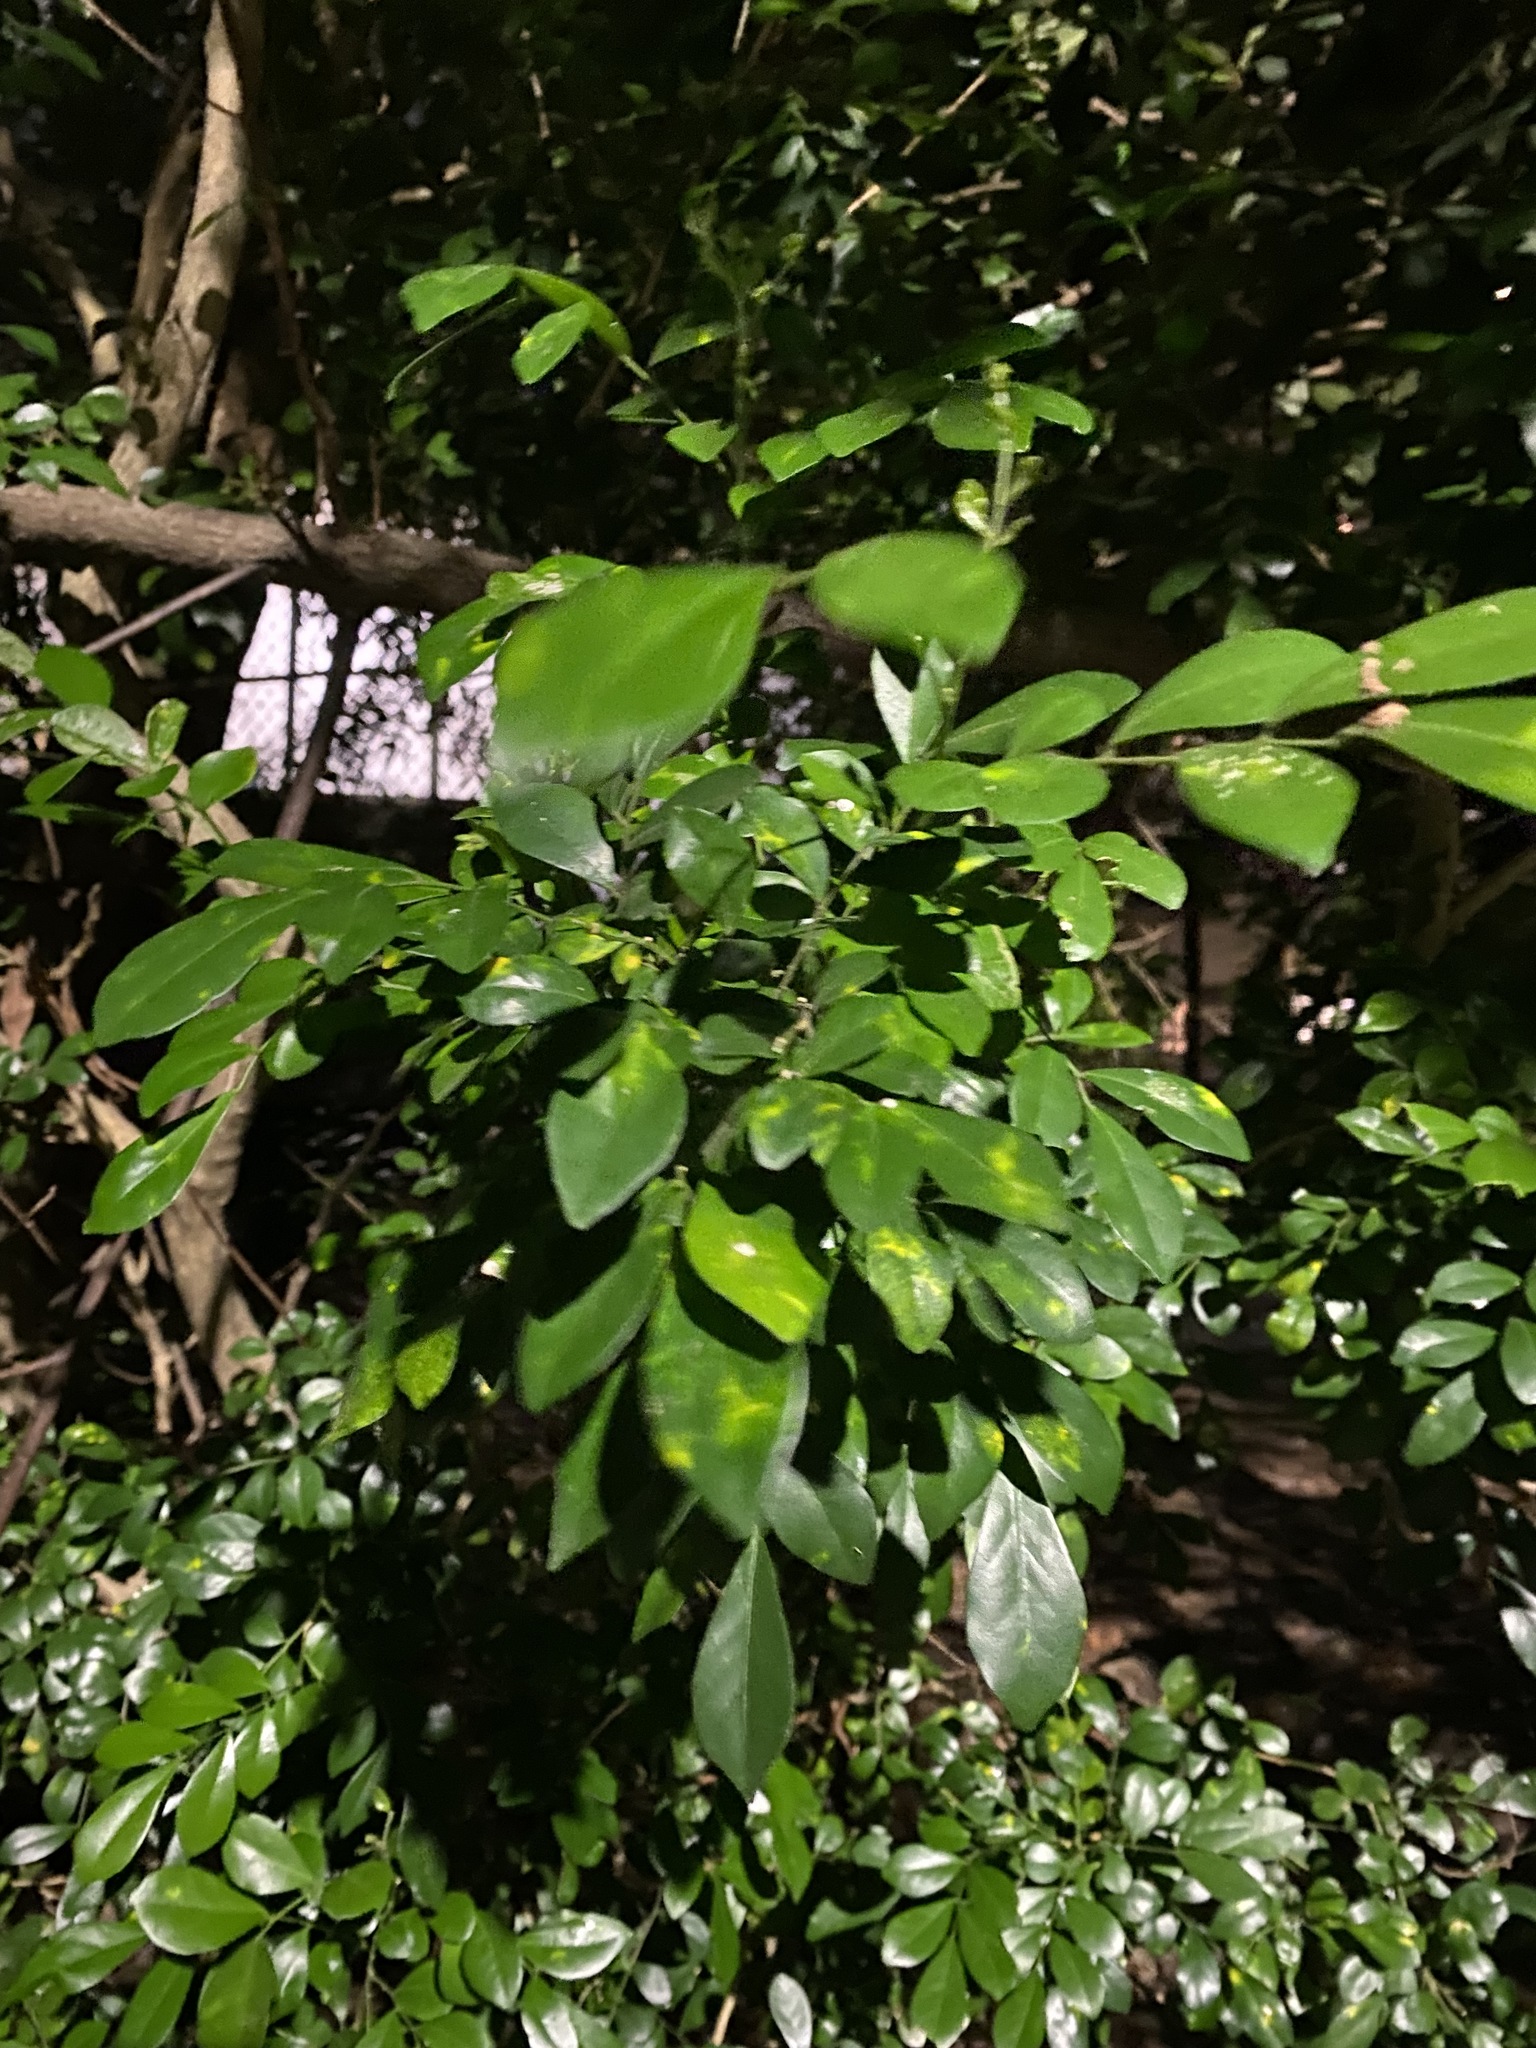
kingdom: Plantae
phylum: Tracheophyta
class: Magnoliopsida
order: Sapindales
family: Rutaceae
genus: Murraya
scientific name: Murraya paniculata
